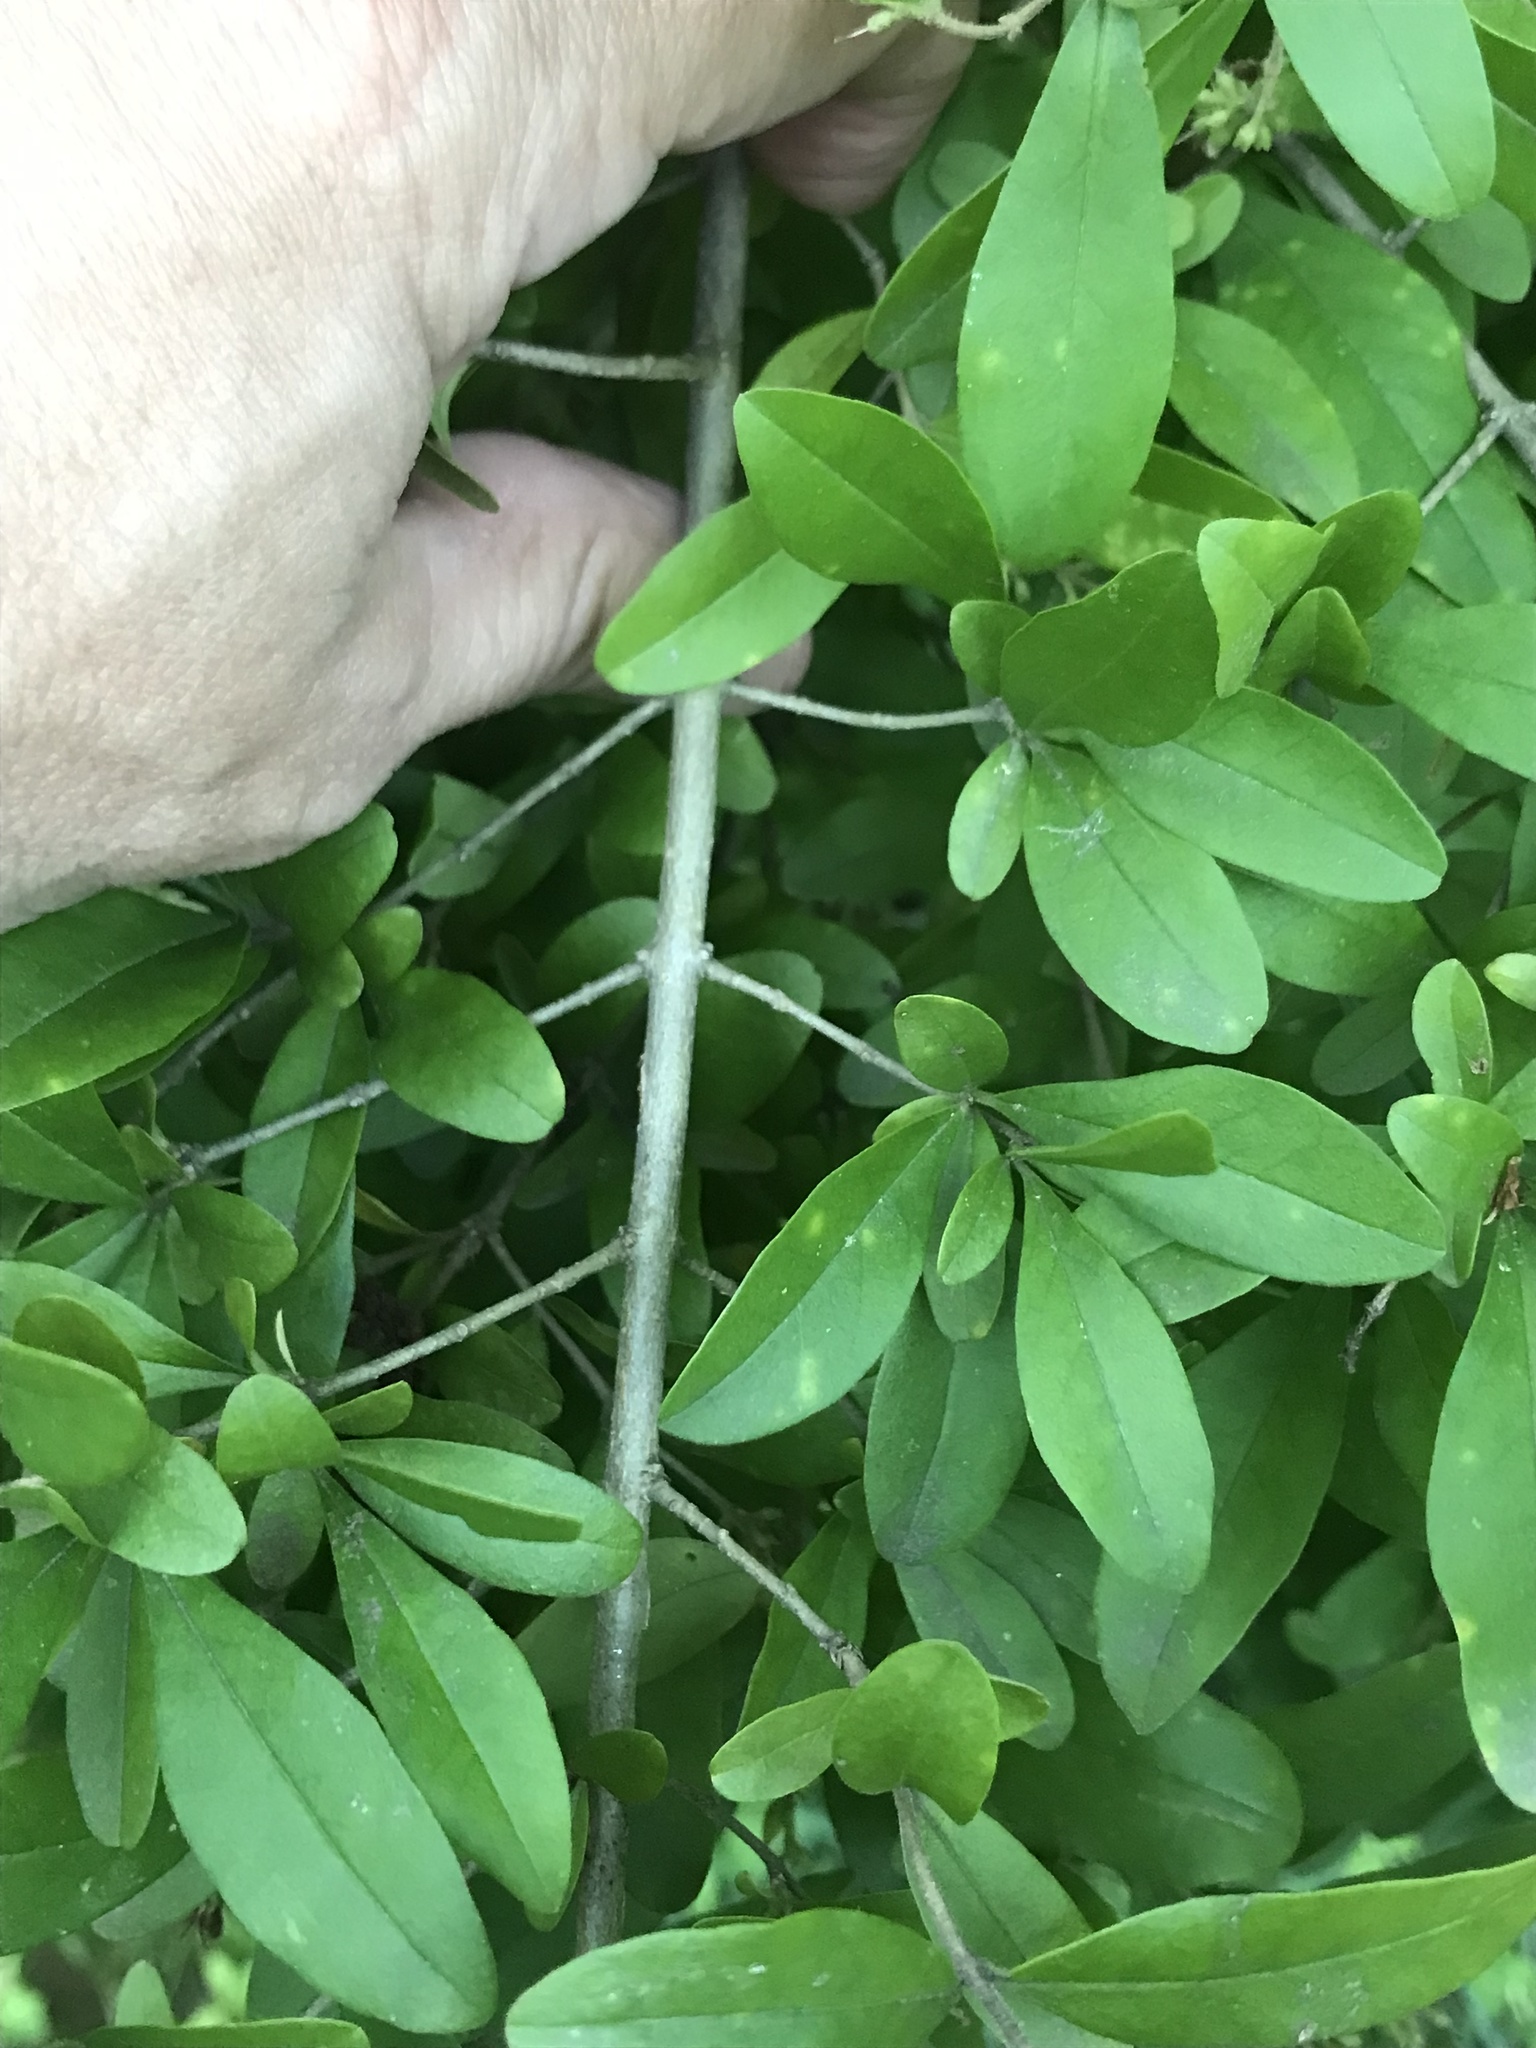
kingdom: Plantae
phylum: Tracheophyta
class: Magnoliopsida
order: Lamiales
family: Oleaceae
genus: Ligustrum
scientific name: Ligustrum obtusifolium
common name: Border privet
